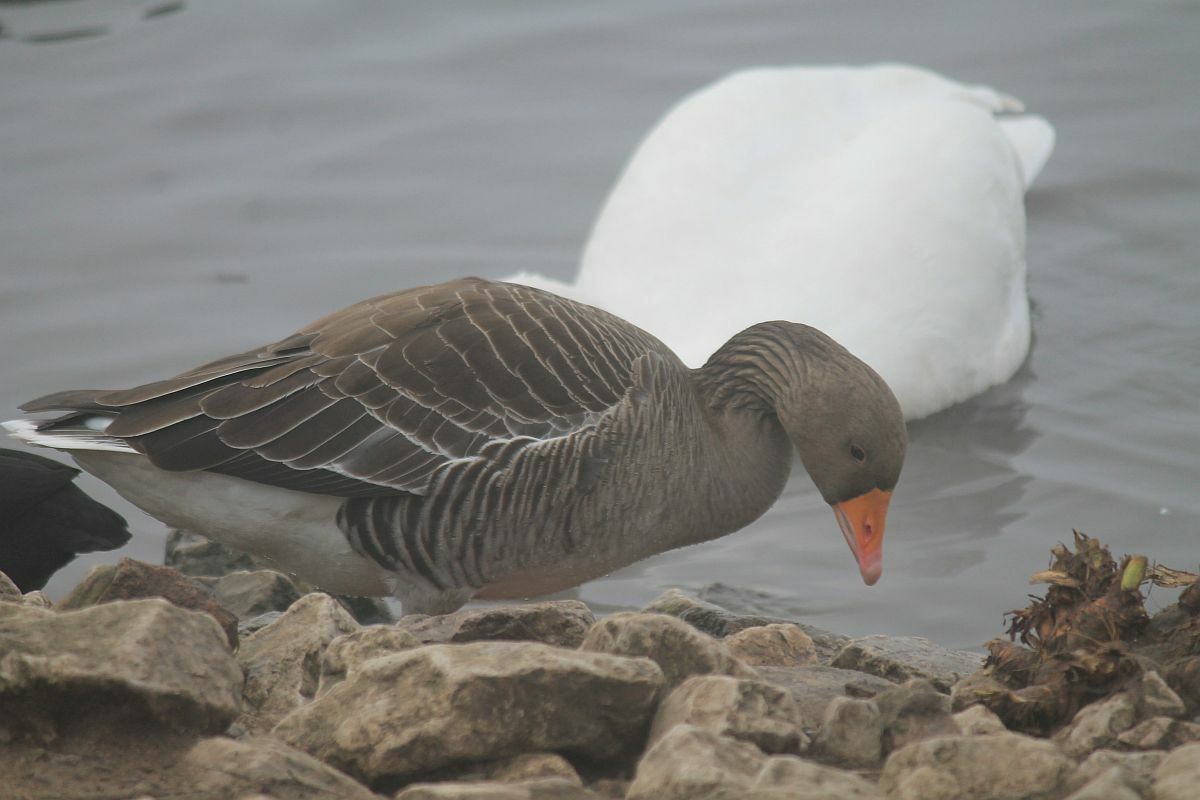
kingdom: Animalia
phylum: Chordata
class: Aves
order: Anseriformes
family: Anatidae
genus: Anser
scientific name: Anser anser
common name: Greylag goose
